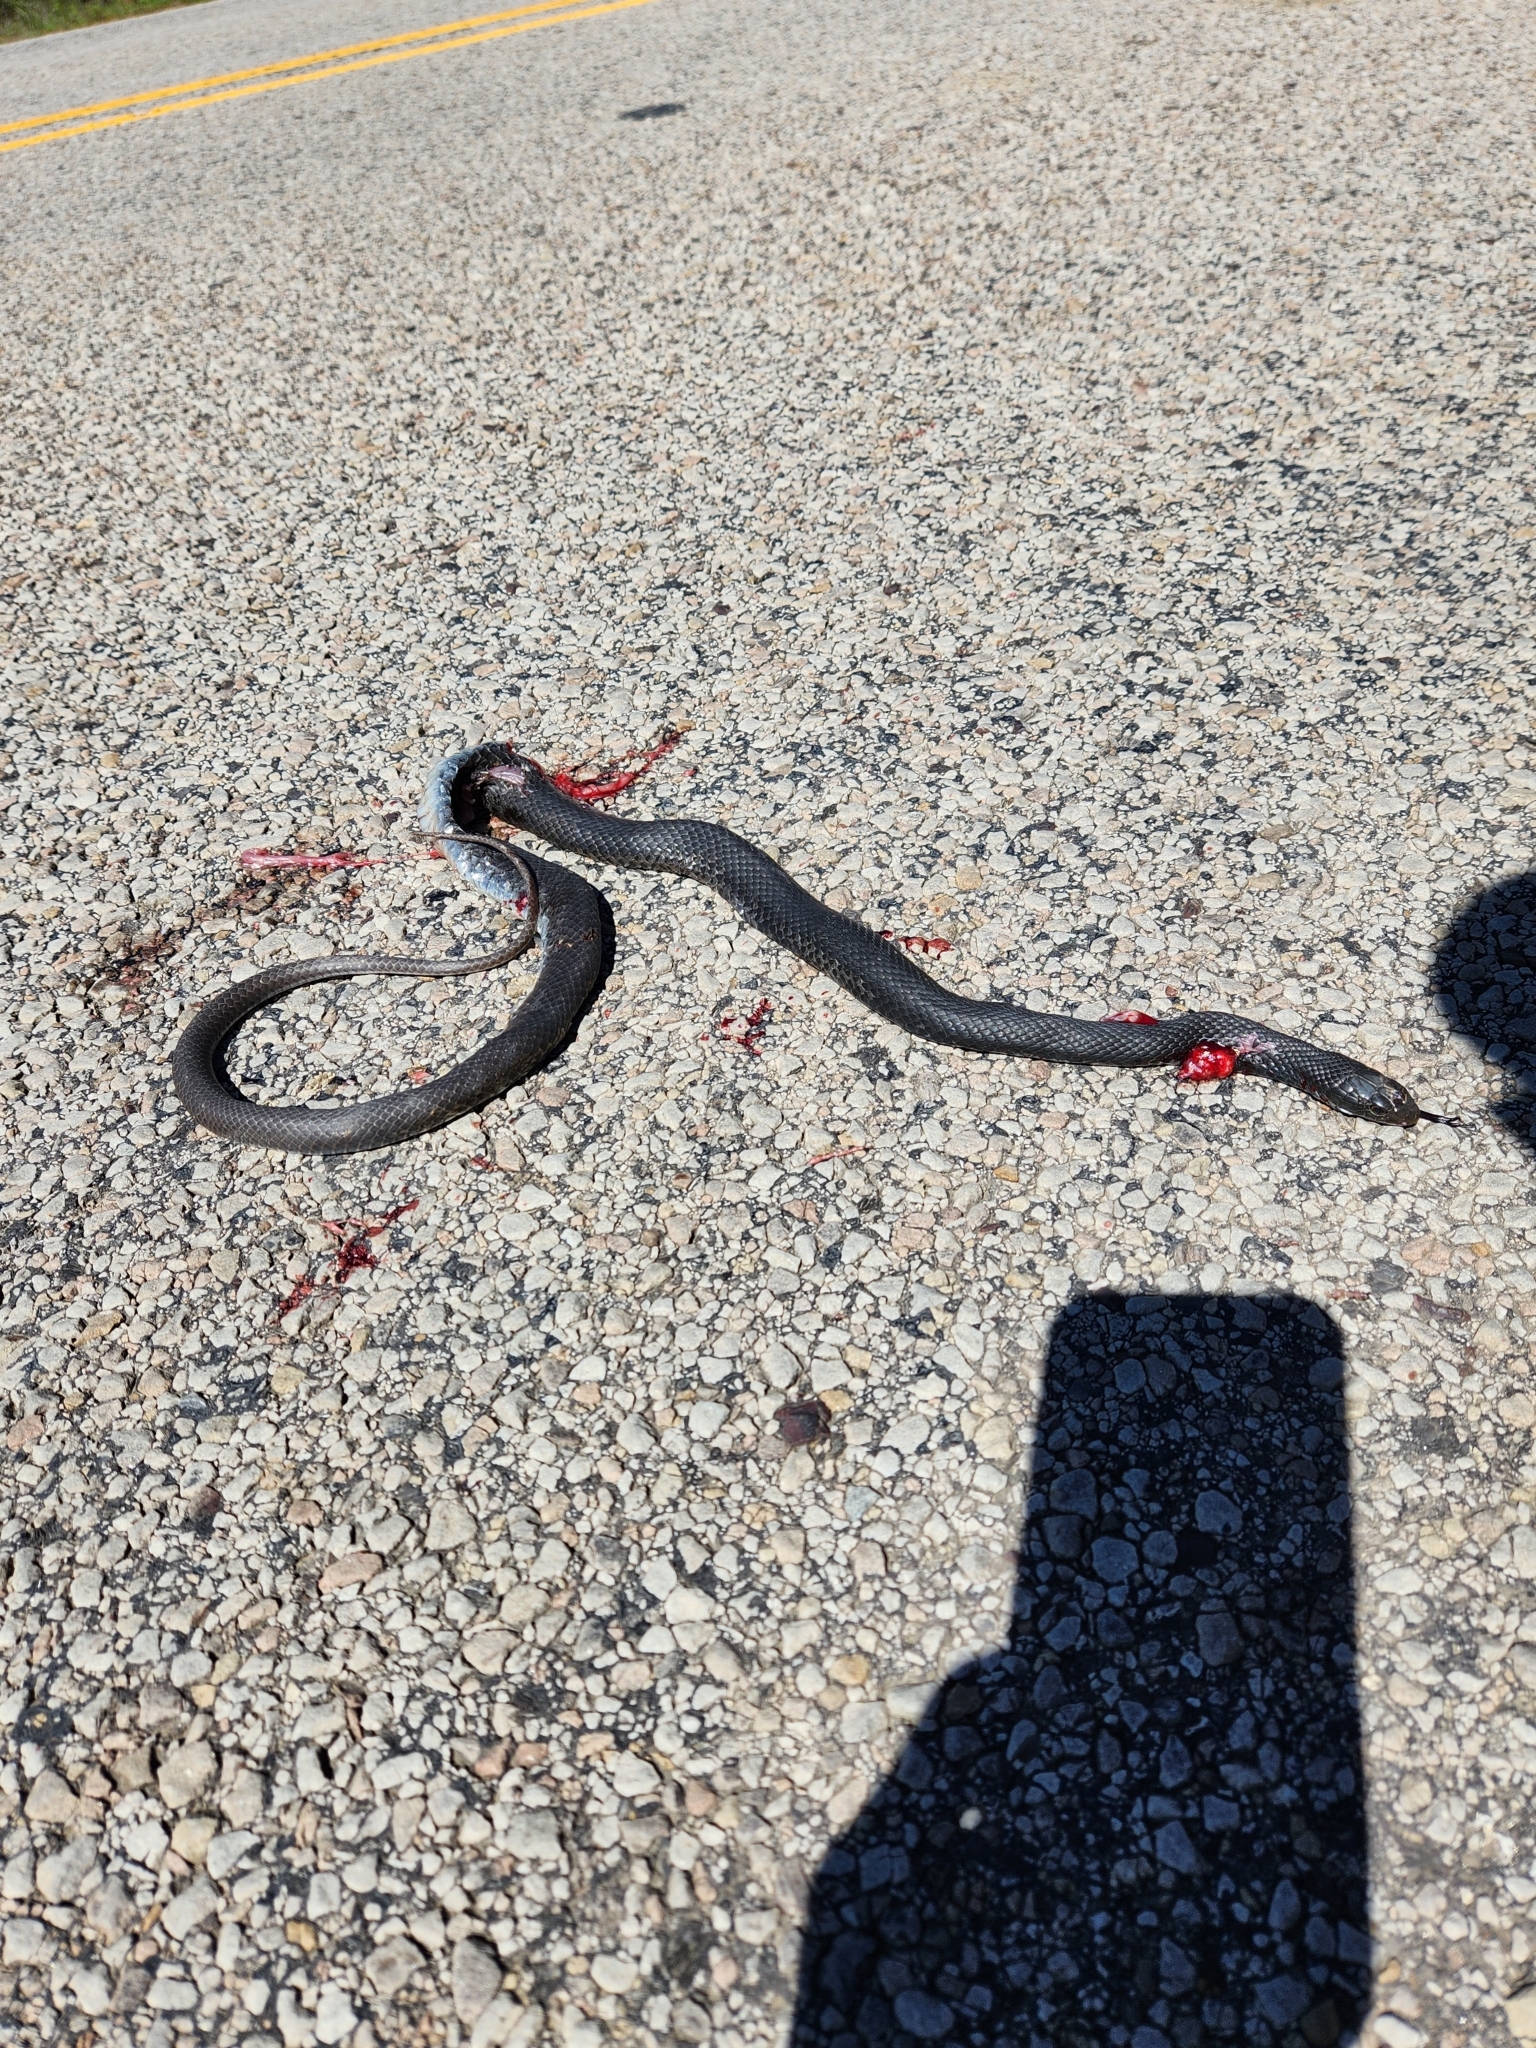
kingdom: Animalia
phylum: Chordata
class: Squamata
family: Colubridae
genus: Coluber
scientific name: Coluber constrictor
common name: Eastern racer
